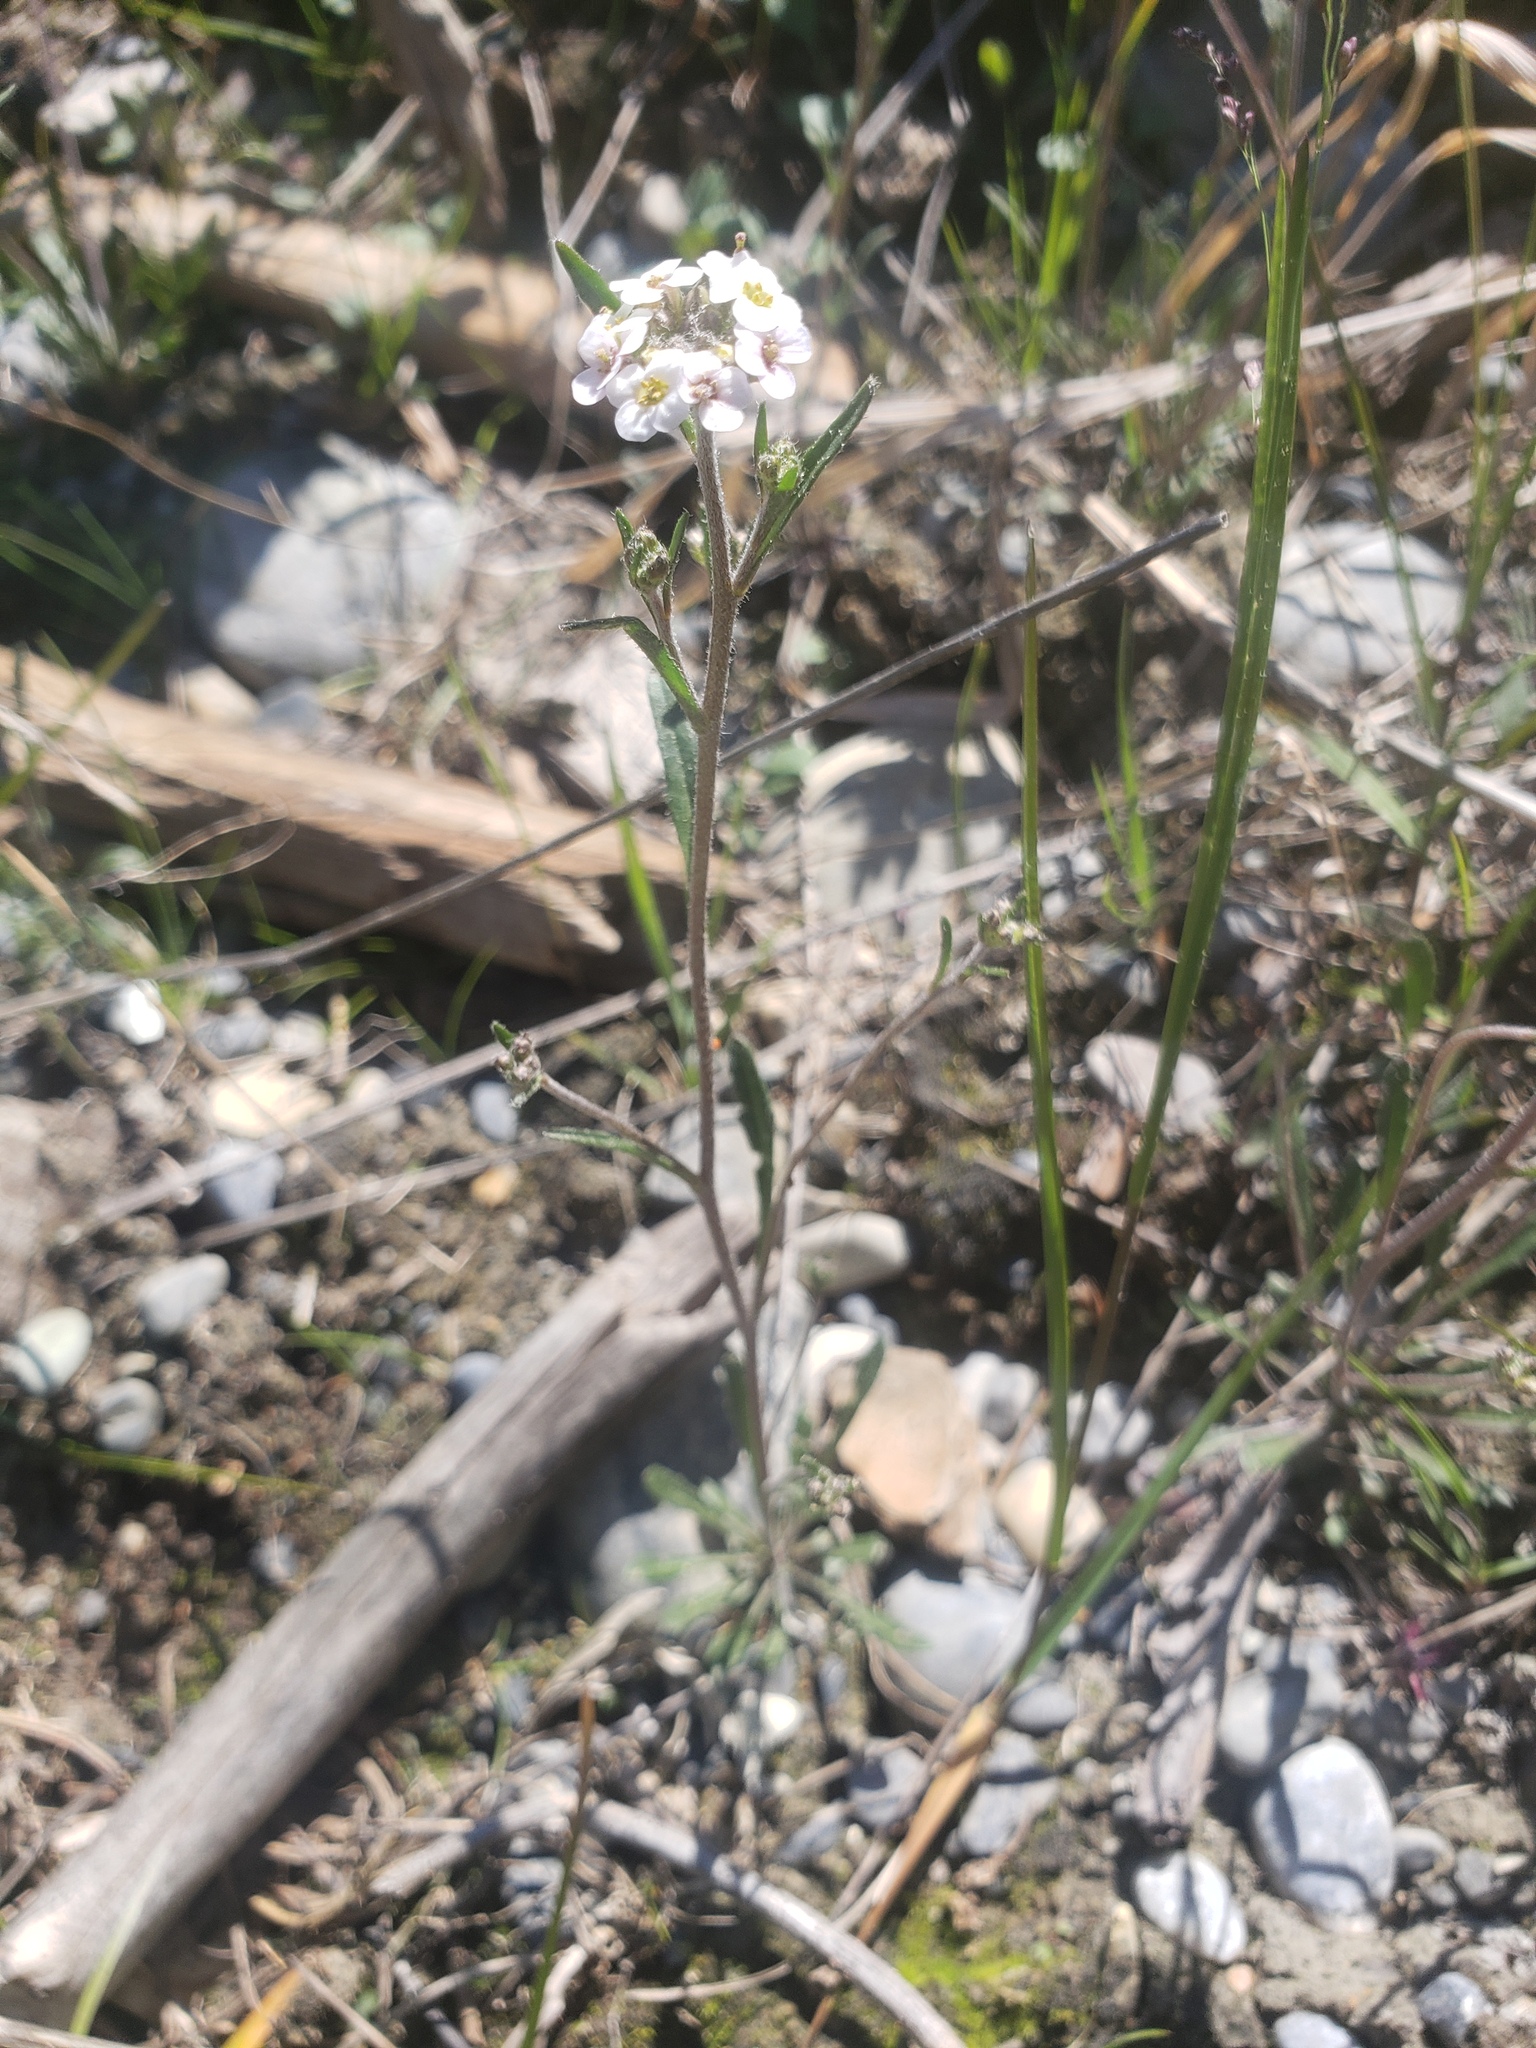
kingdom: Plantae
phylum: Tracheophyta
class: Magnoliopsida
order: Brassicales
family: Brassicaceae
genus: Braya
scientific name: Braya humilis
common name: Alpine northern rockcress
